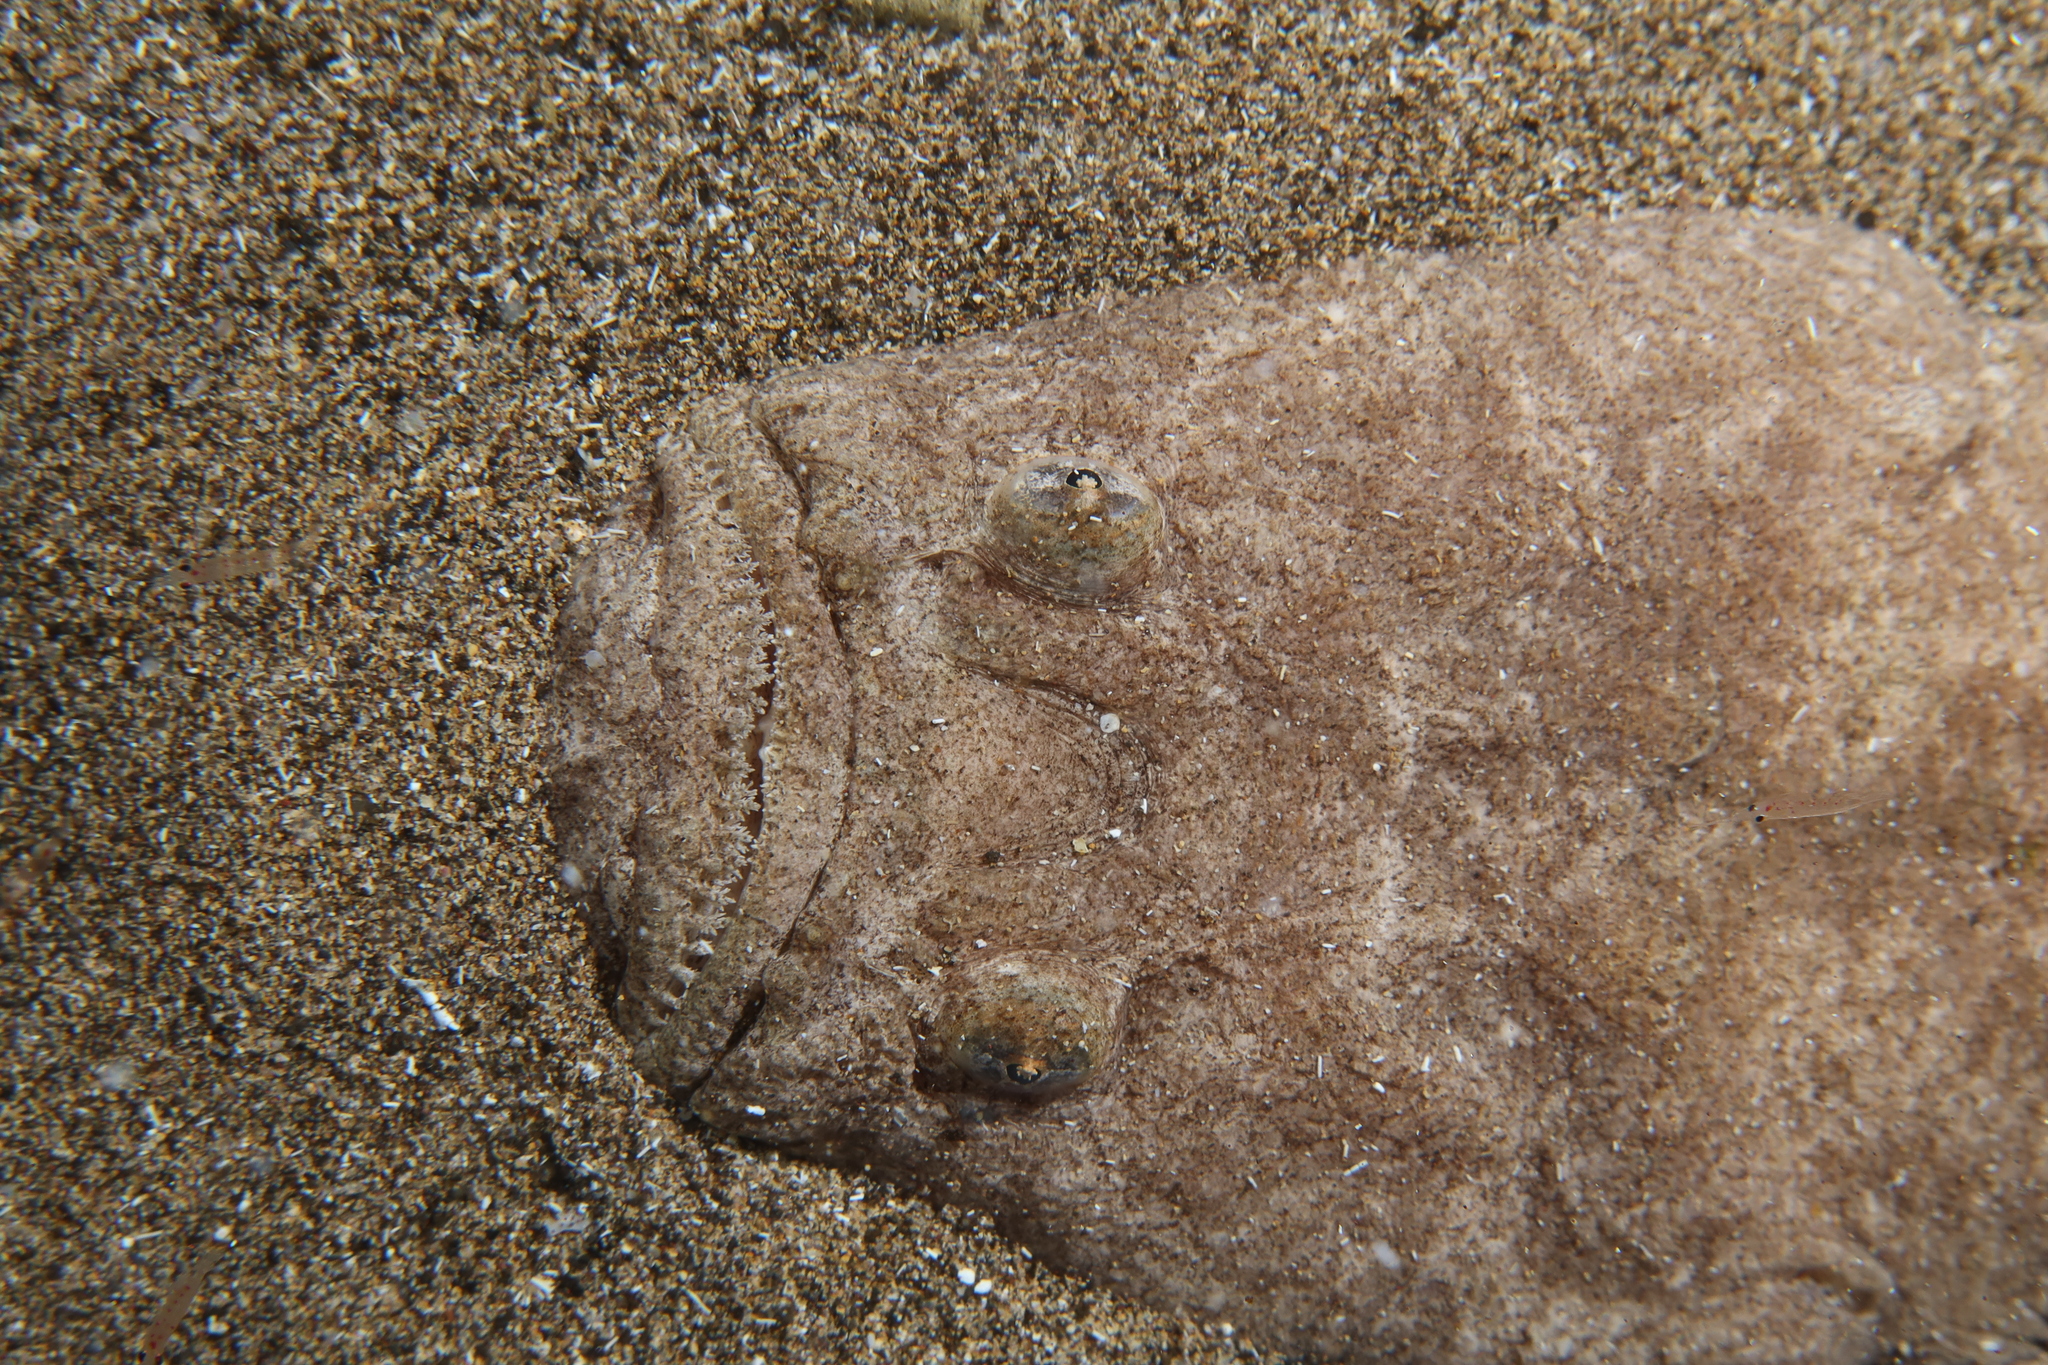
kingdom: Animalia
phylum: Chordata
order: Perciformes
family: Uranoscopidae
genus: Uranoscopus
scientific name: Uranoscopus scaber
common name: Stargazer
